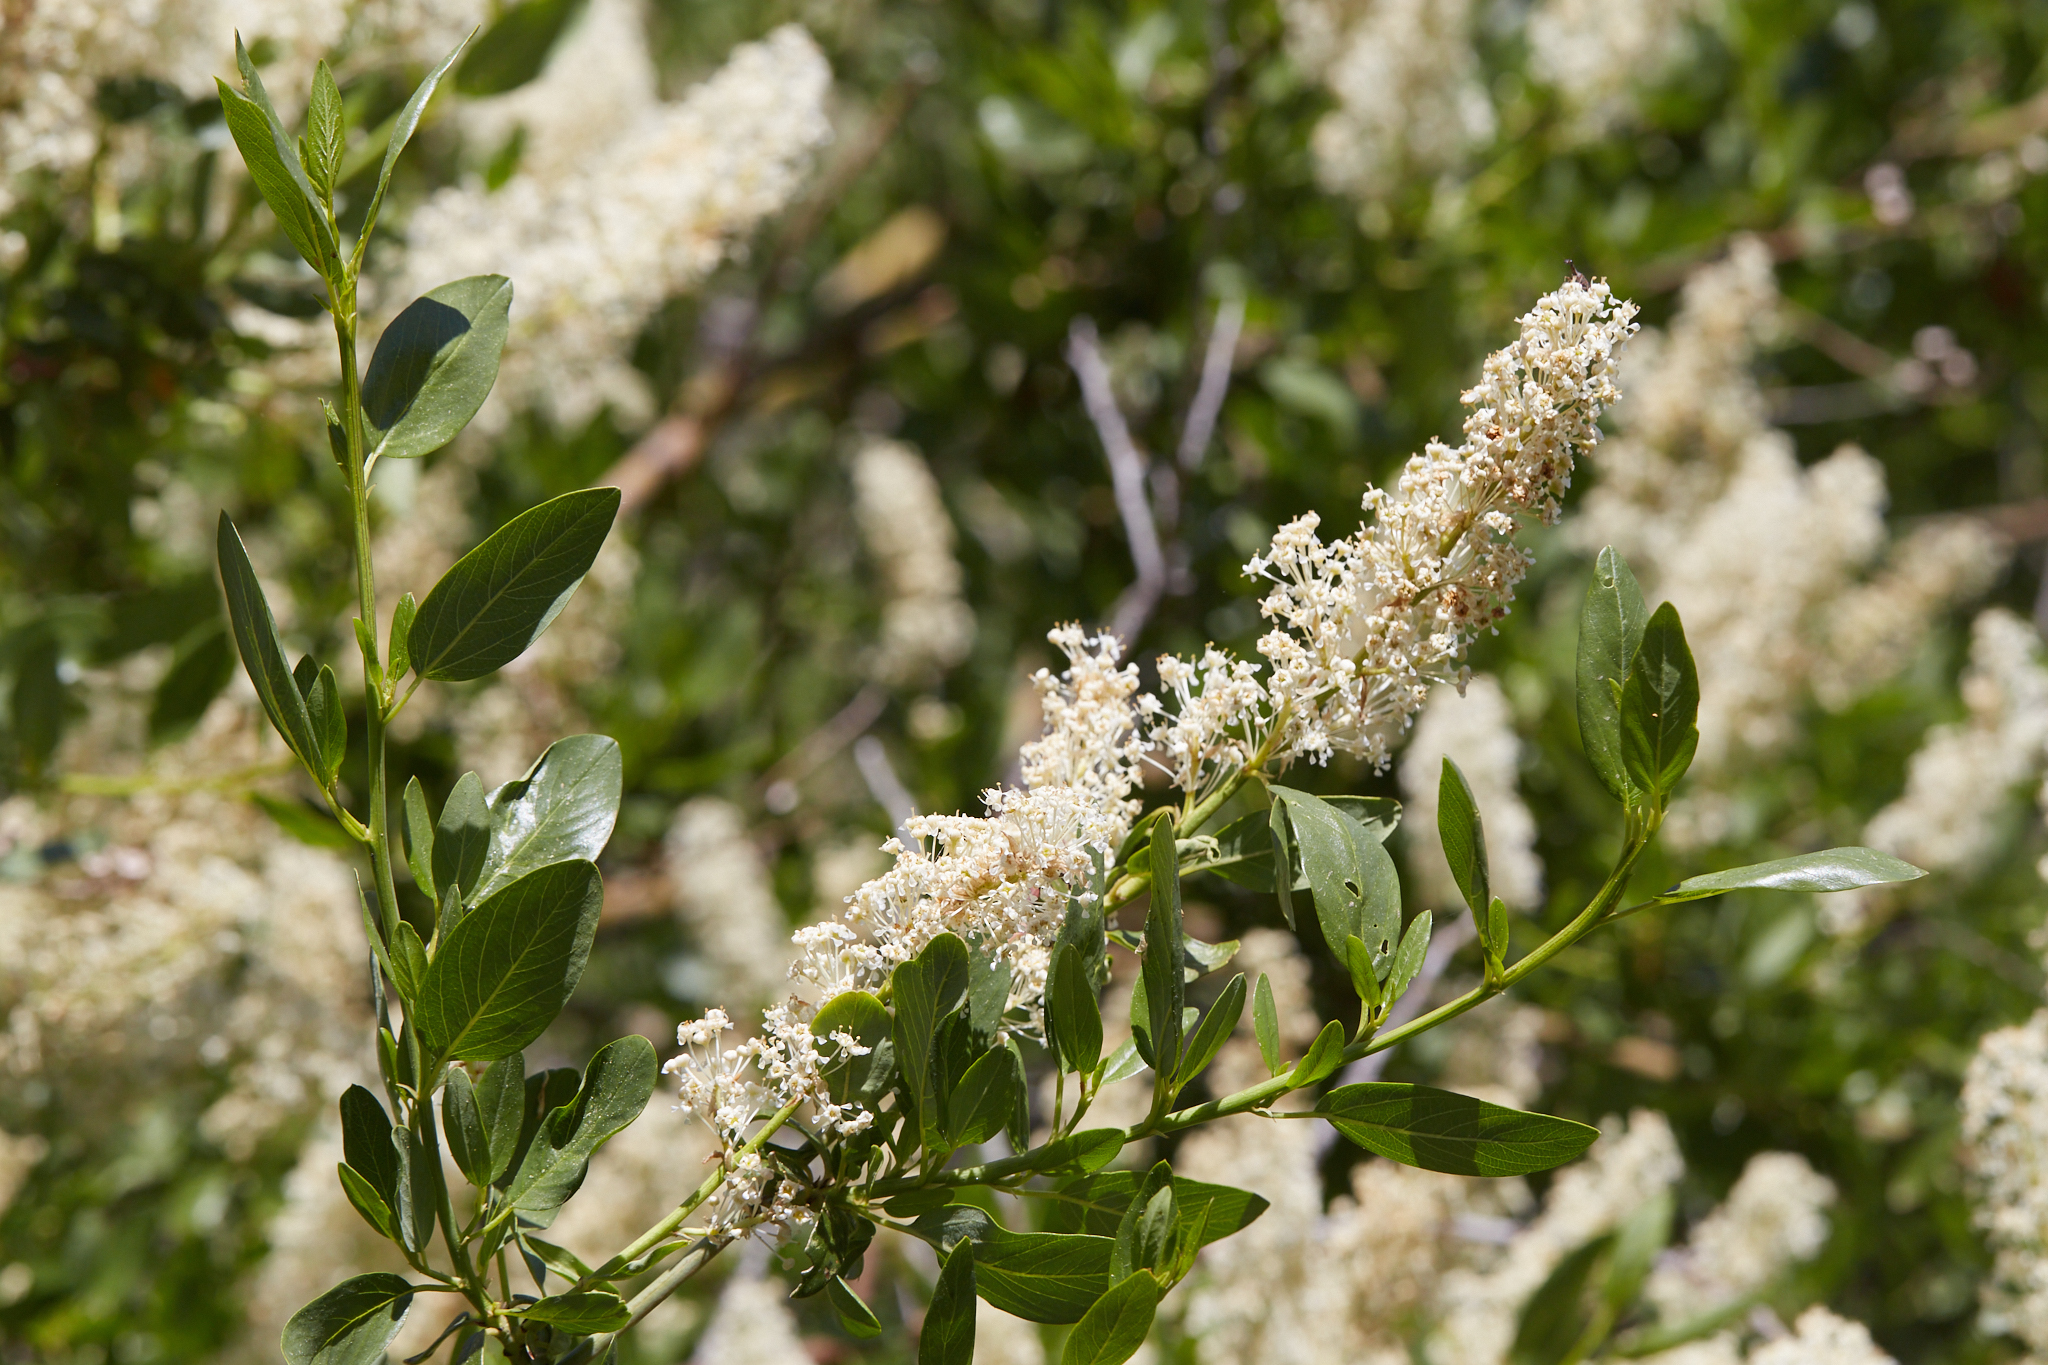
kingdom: Plantae
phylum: Tracheophyta
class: Magnoliopsida
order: Rosales
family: Rhamnaceae
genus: Ceanothus
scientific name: Ceanothus palmeri
